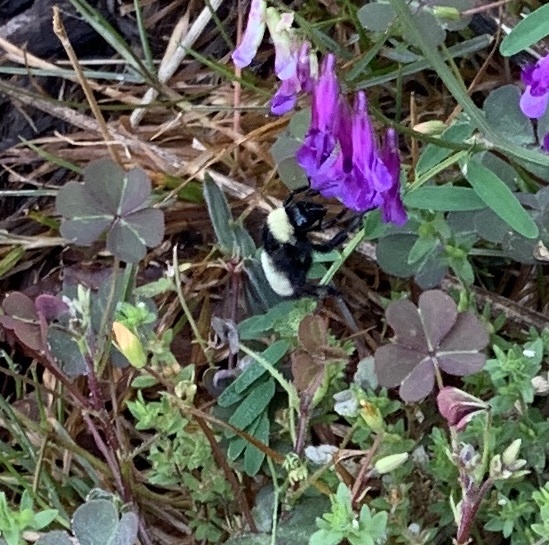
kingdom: Animalia
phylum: Arthropoda
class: Insecta
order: Hymenoptera
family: Apidae
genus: Bombus
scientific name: Bombus pensylvanicus
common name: Bumble bee
